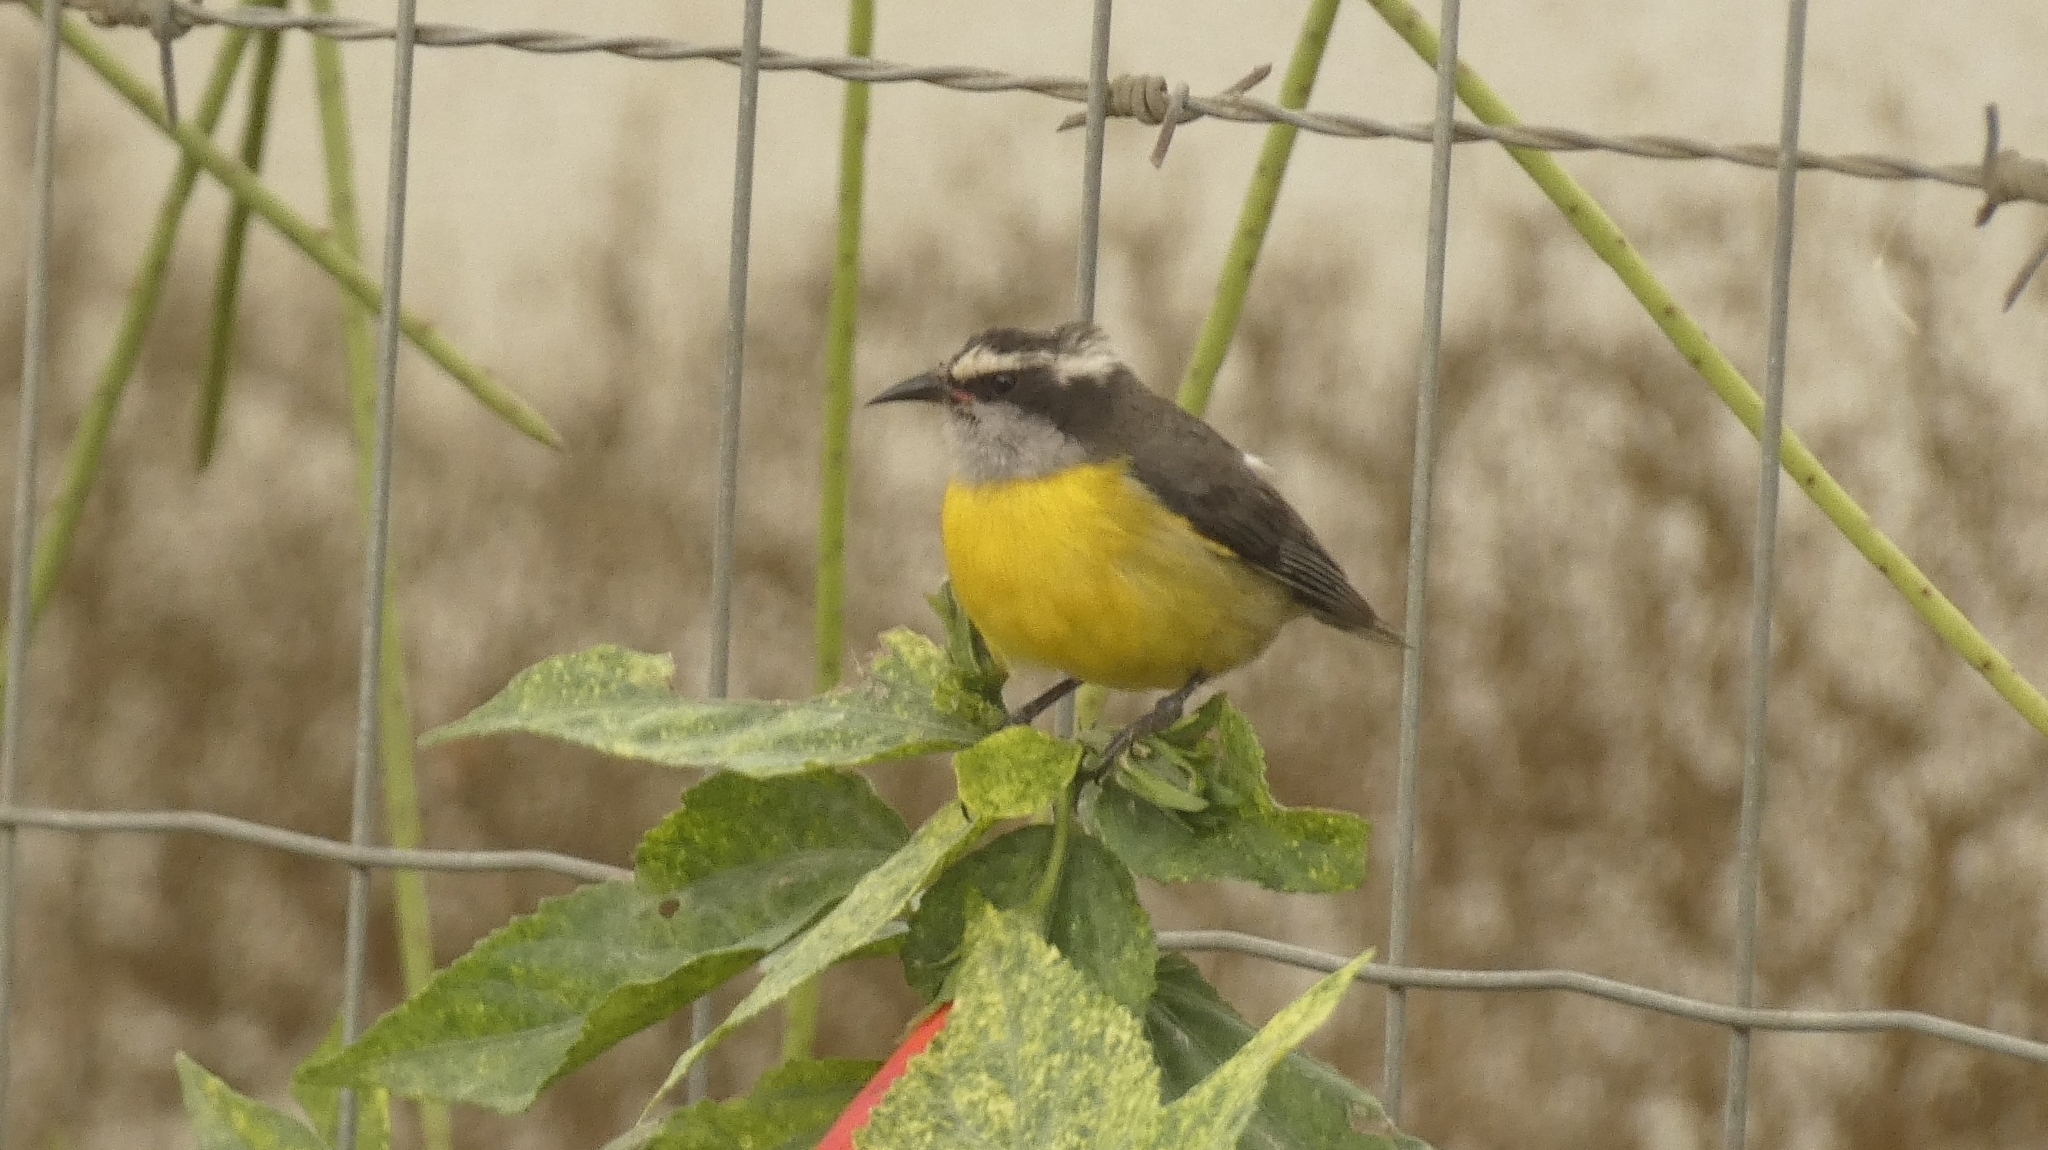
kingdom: Animalia
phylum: Chordata
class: Aves
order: Passeriformes
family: Thraupidae
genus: Coereba
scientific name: Coereba flaveola
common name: Bananaquit
